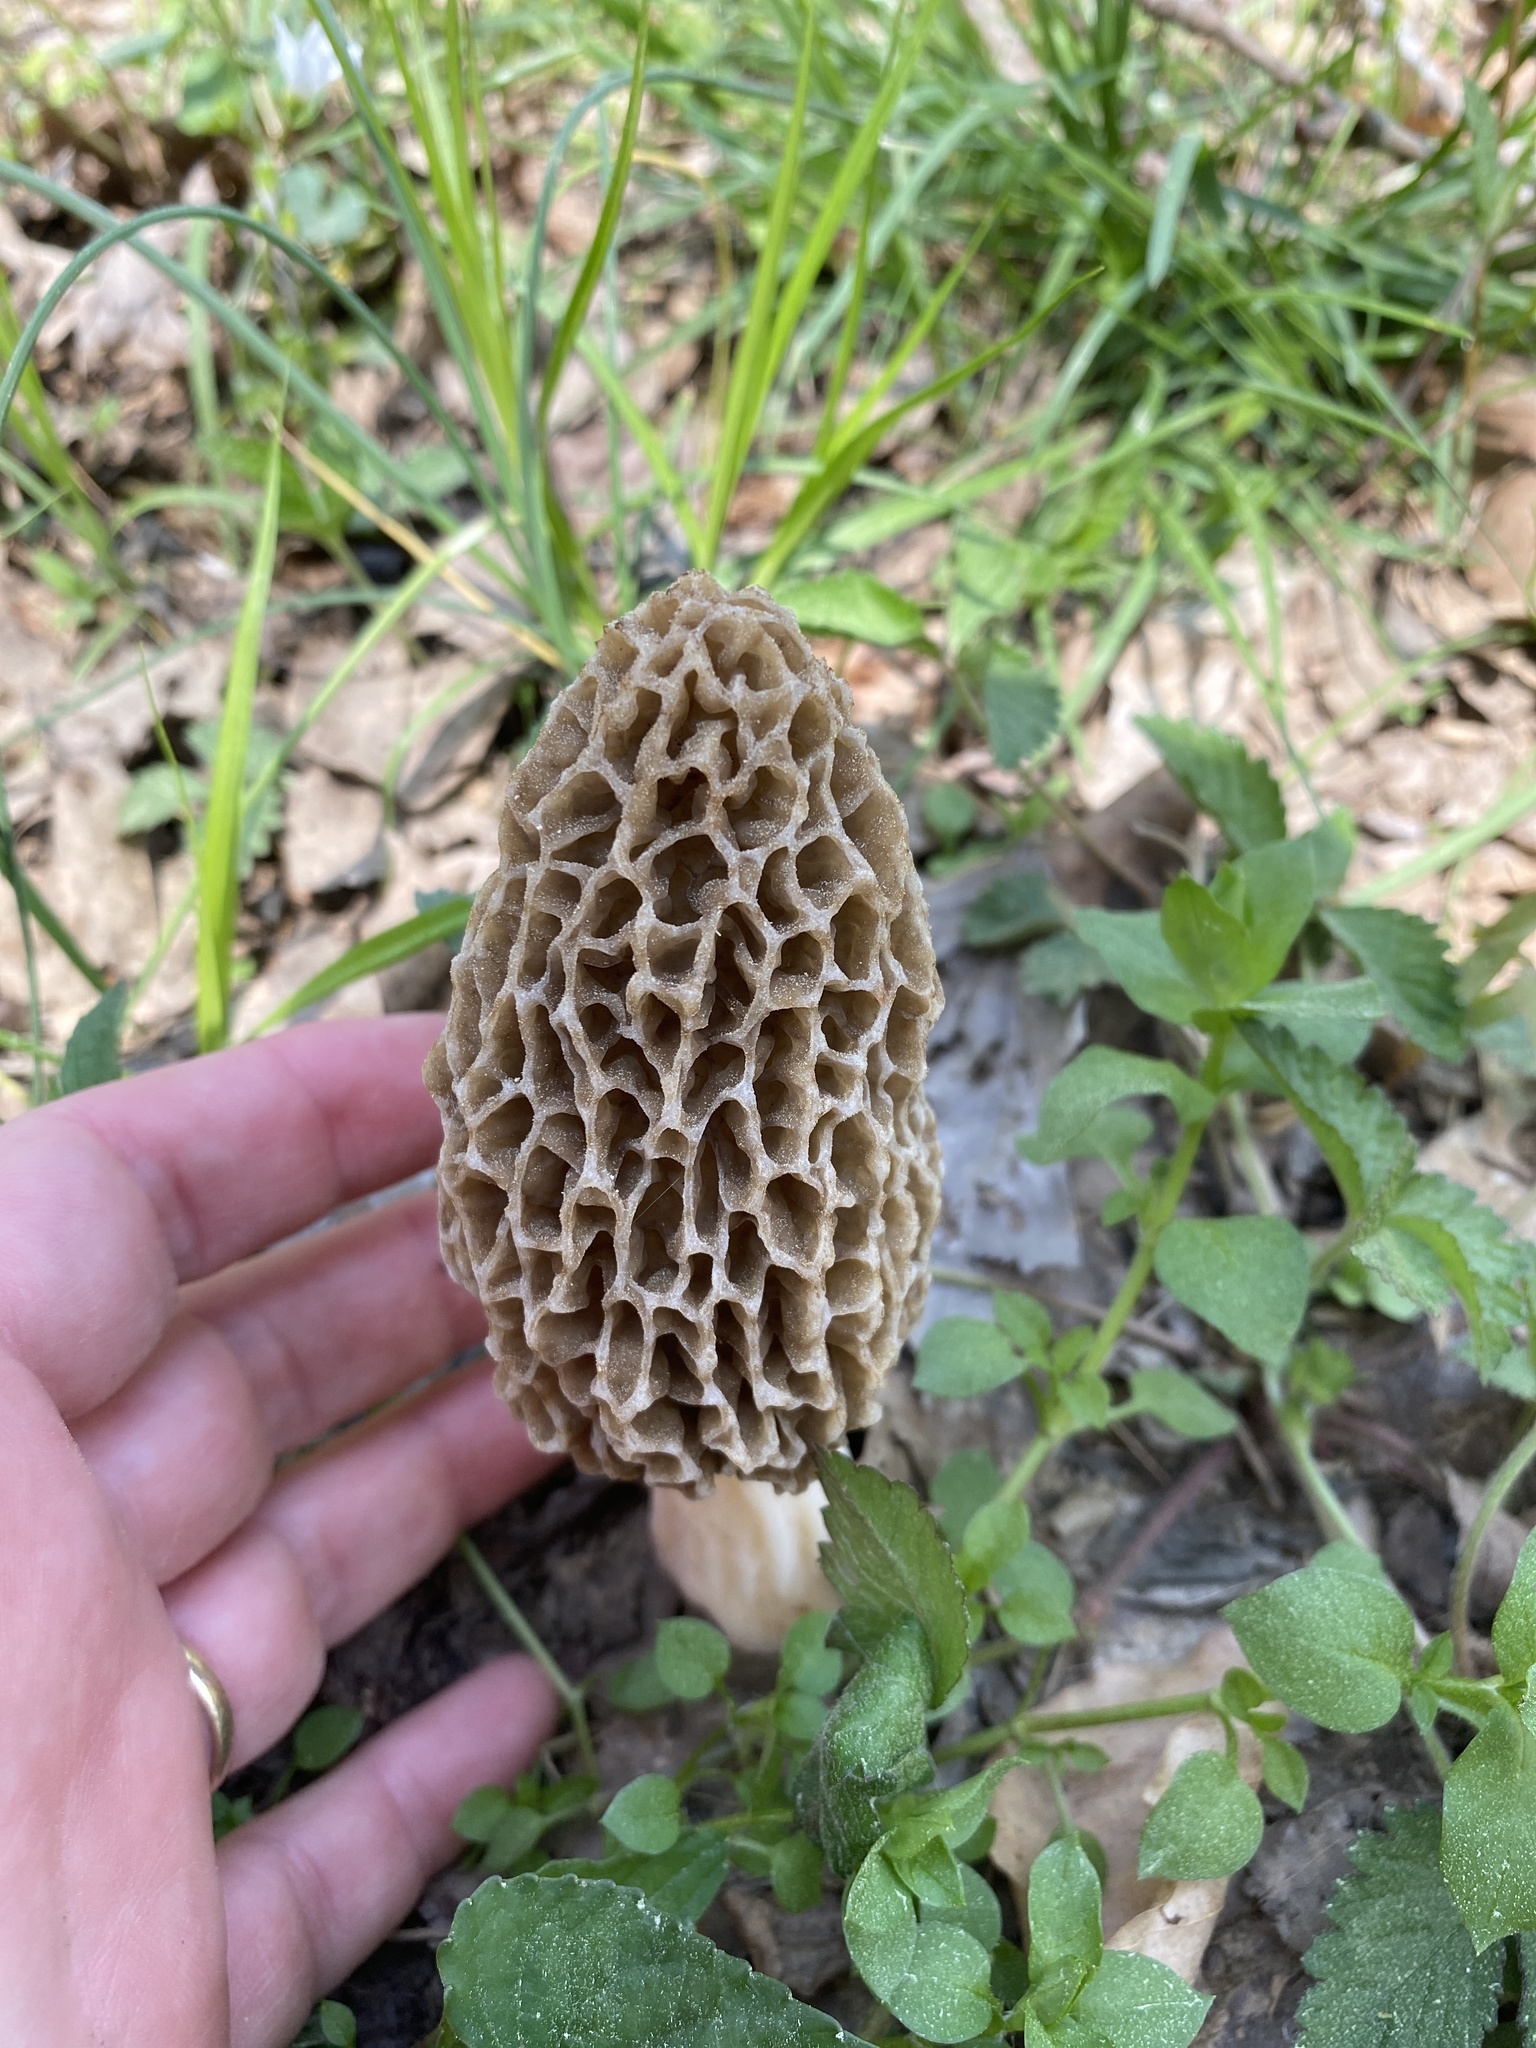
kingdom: Fungi
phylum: Ascomycota
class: Pezizomycetes
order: Pezizales
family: Morchellaceae
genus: Morchella
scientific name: Morchella americana
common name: White morel
